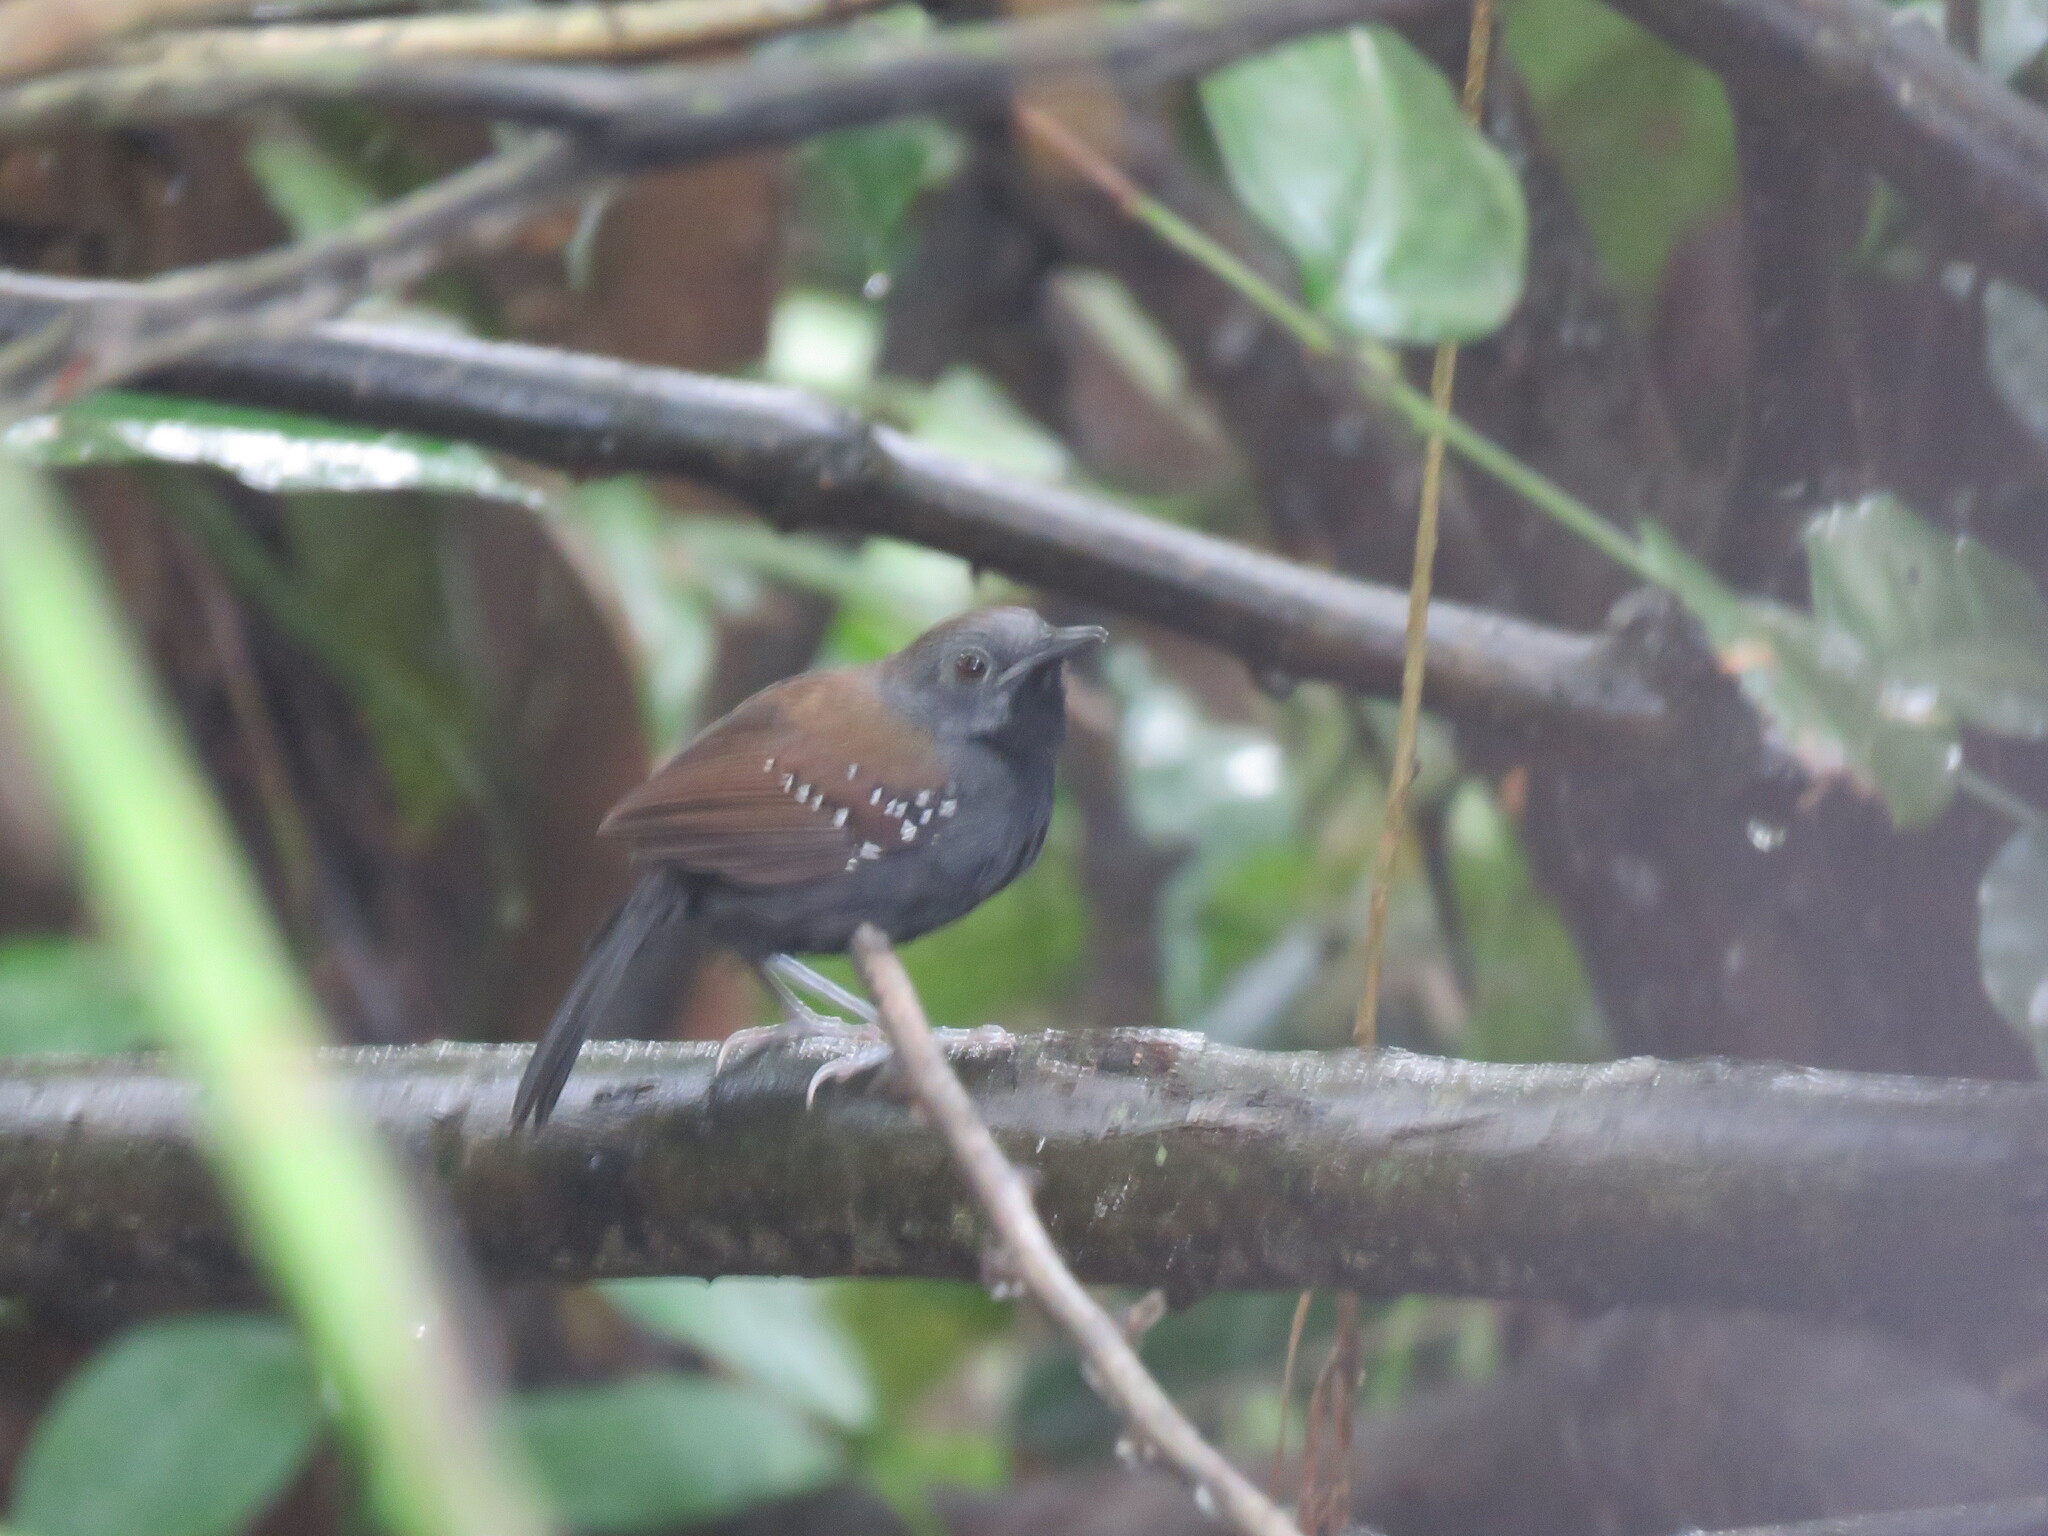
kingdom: Animalia
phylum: Chordata
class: Aves
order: Passeriformes
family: Thamnophilidae
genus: Myrmeciza
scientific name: Myrmeciza atrothorax
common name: Black-throated antbird
